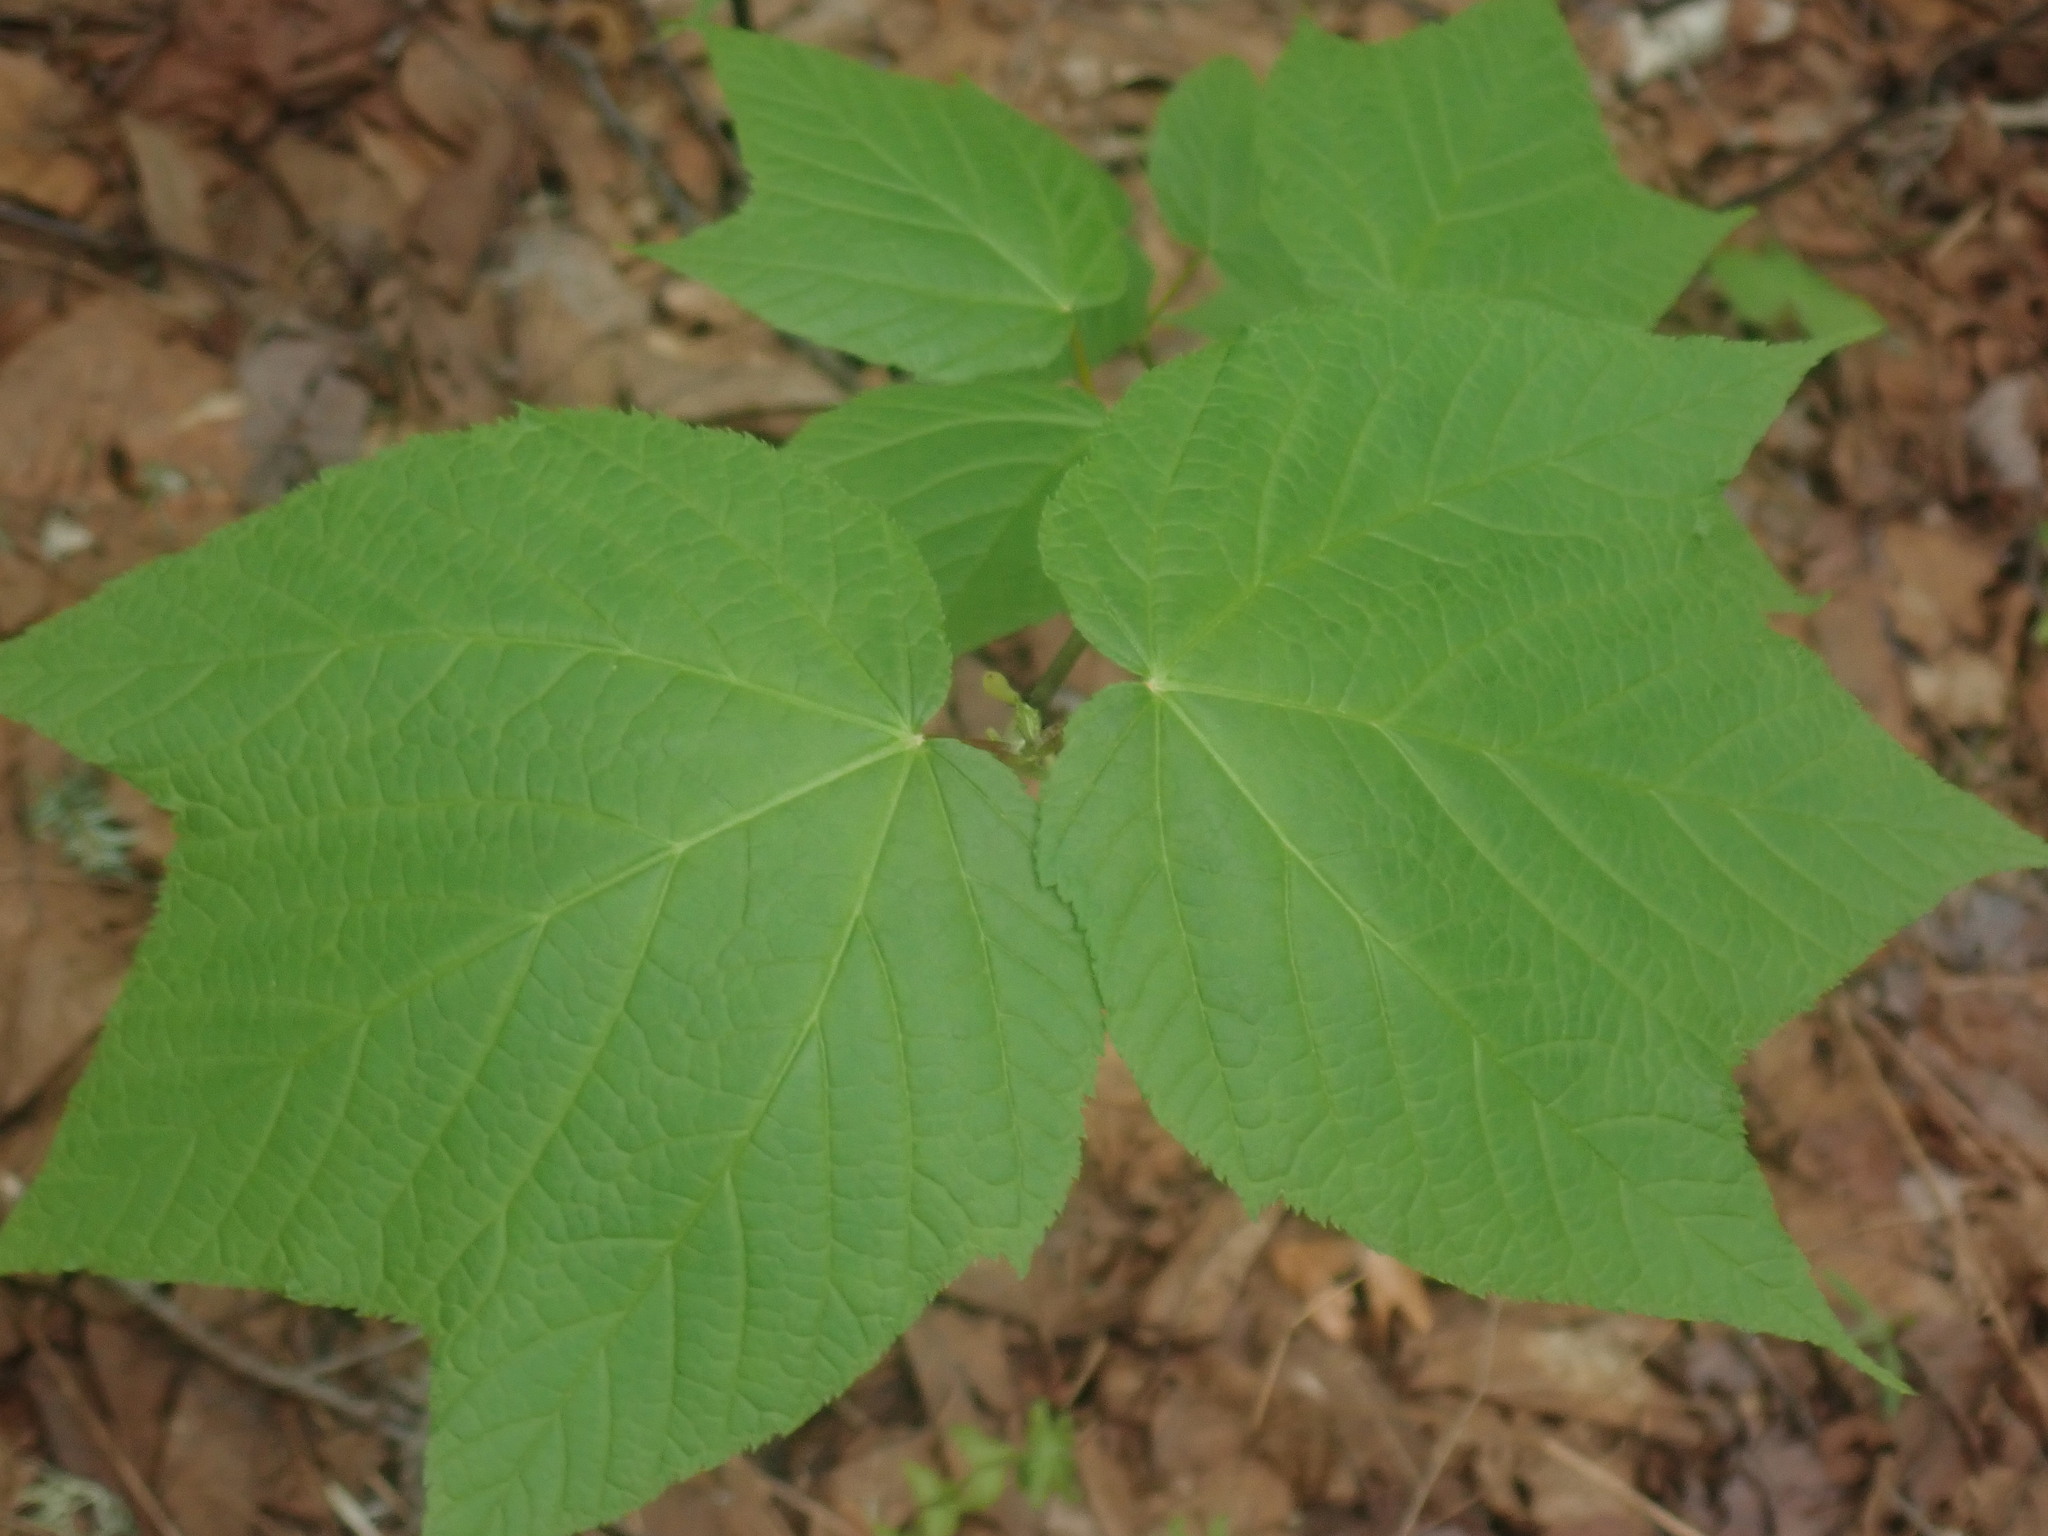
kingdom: Plantae
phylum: Tracheophyta
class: Magnoliopsida
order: Sapindales
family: Sapindaceae
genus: Acer
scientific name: Acer pensylvanicum
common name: Moosewood
